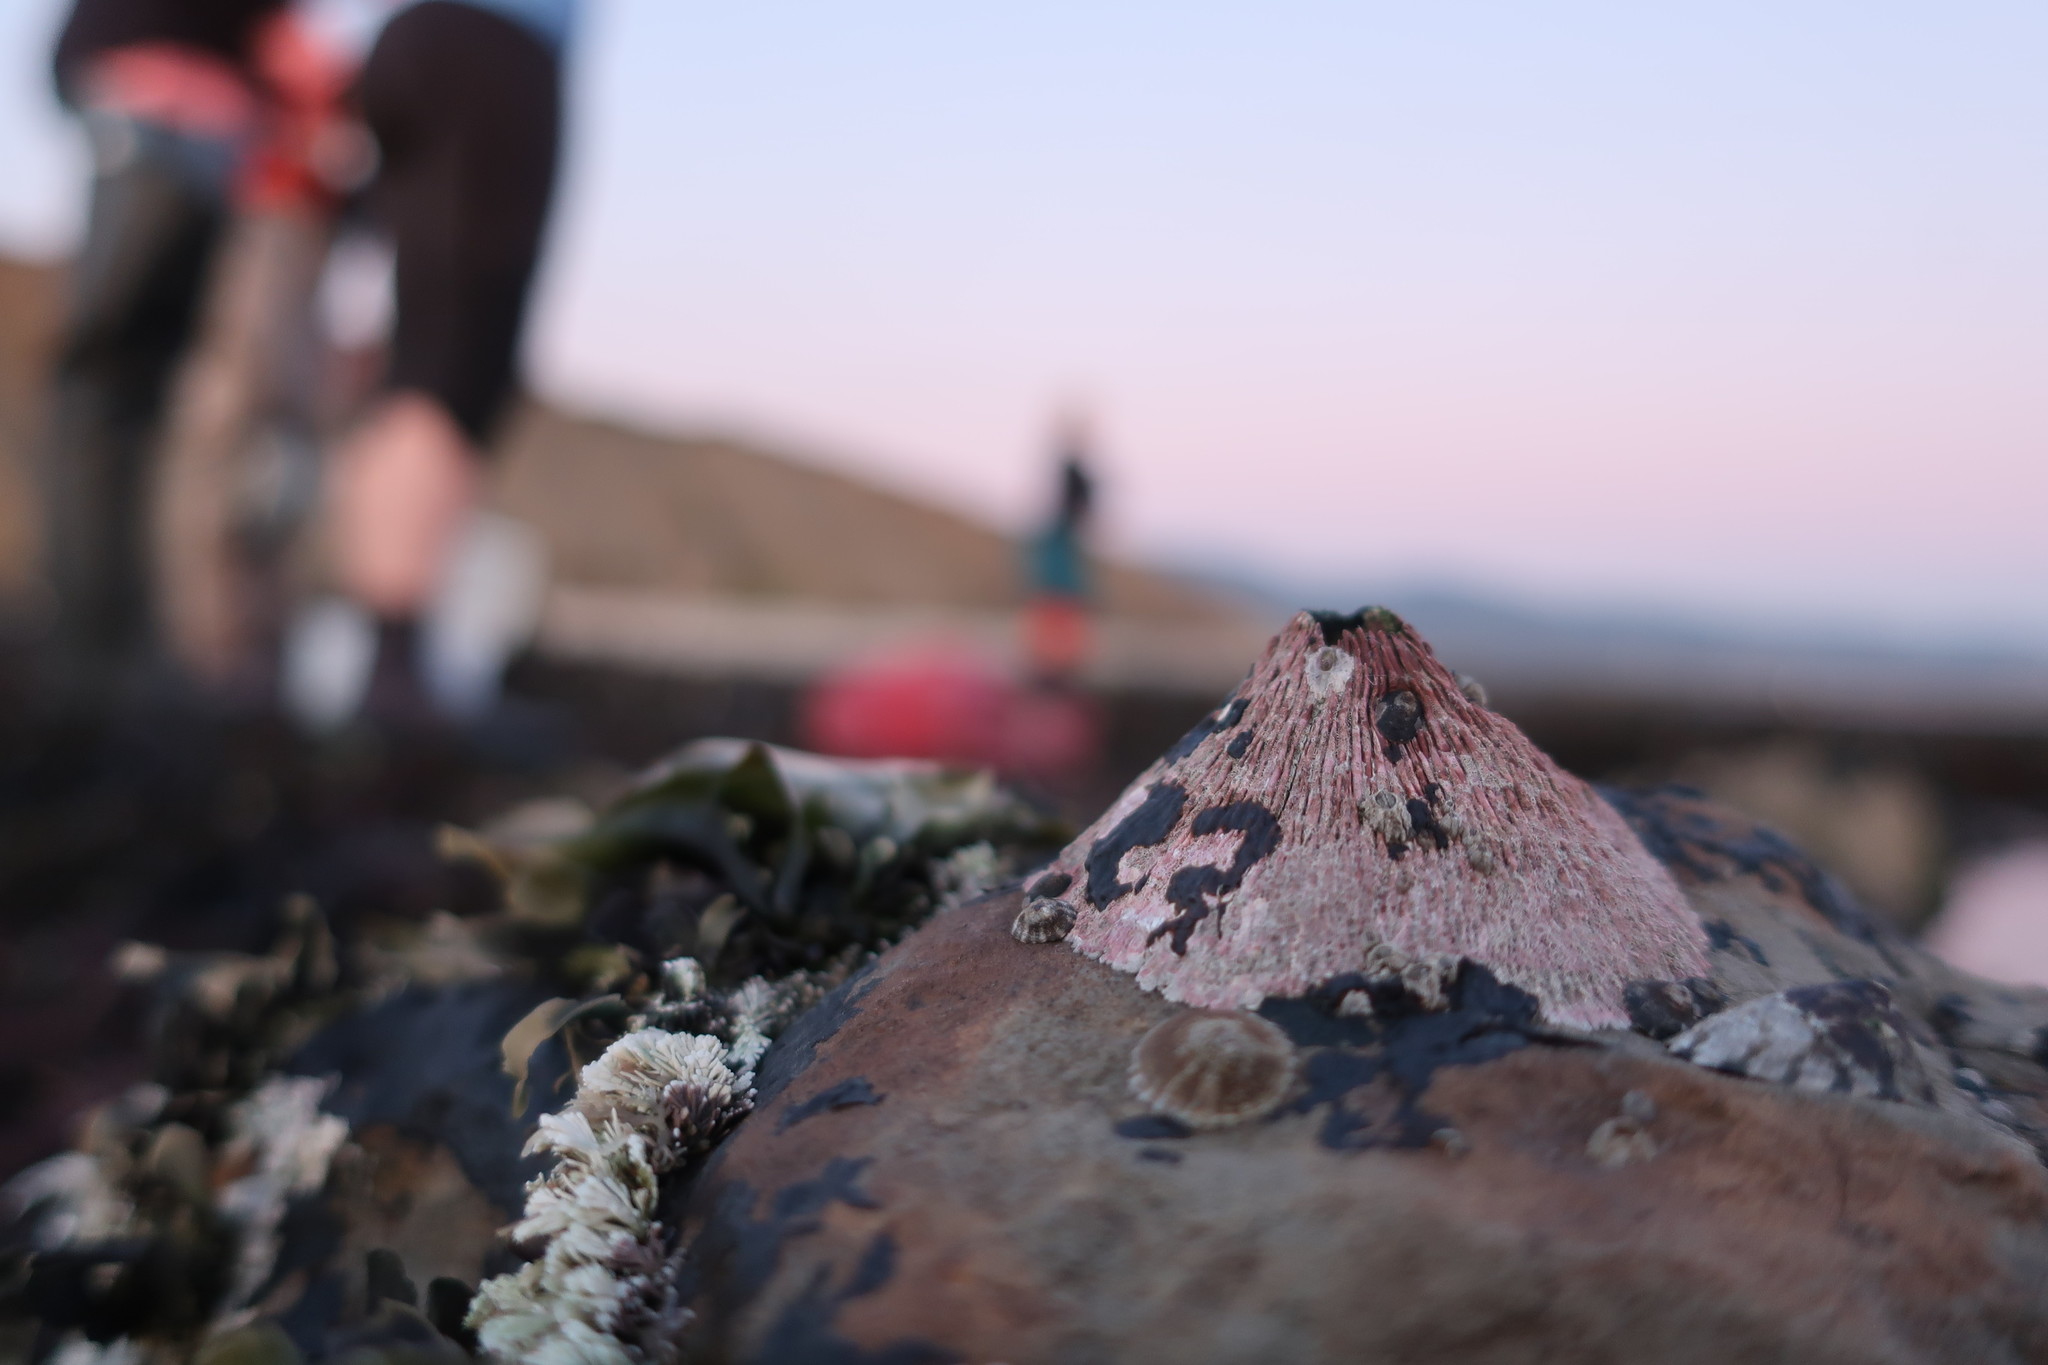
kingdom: Animalia
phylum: Arthropoda
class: Maxillopoda
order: Sessilia
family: Tetraclitidae
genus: Tetraclita
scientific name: Tetraclita rubescens
